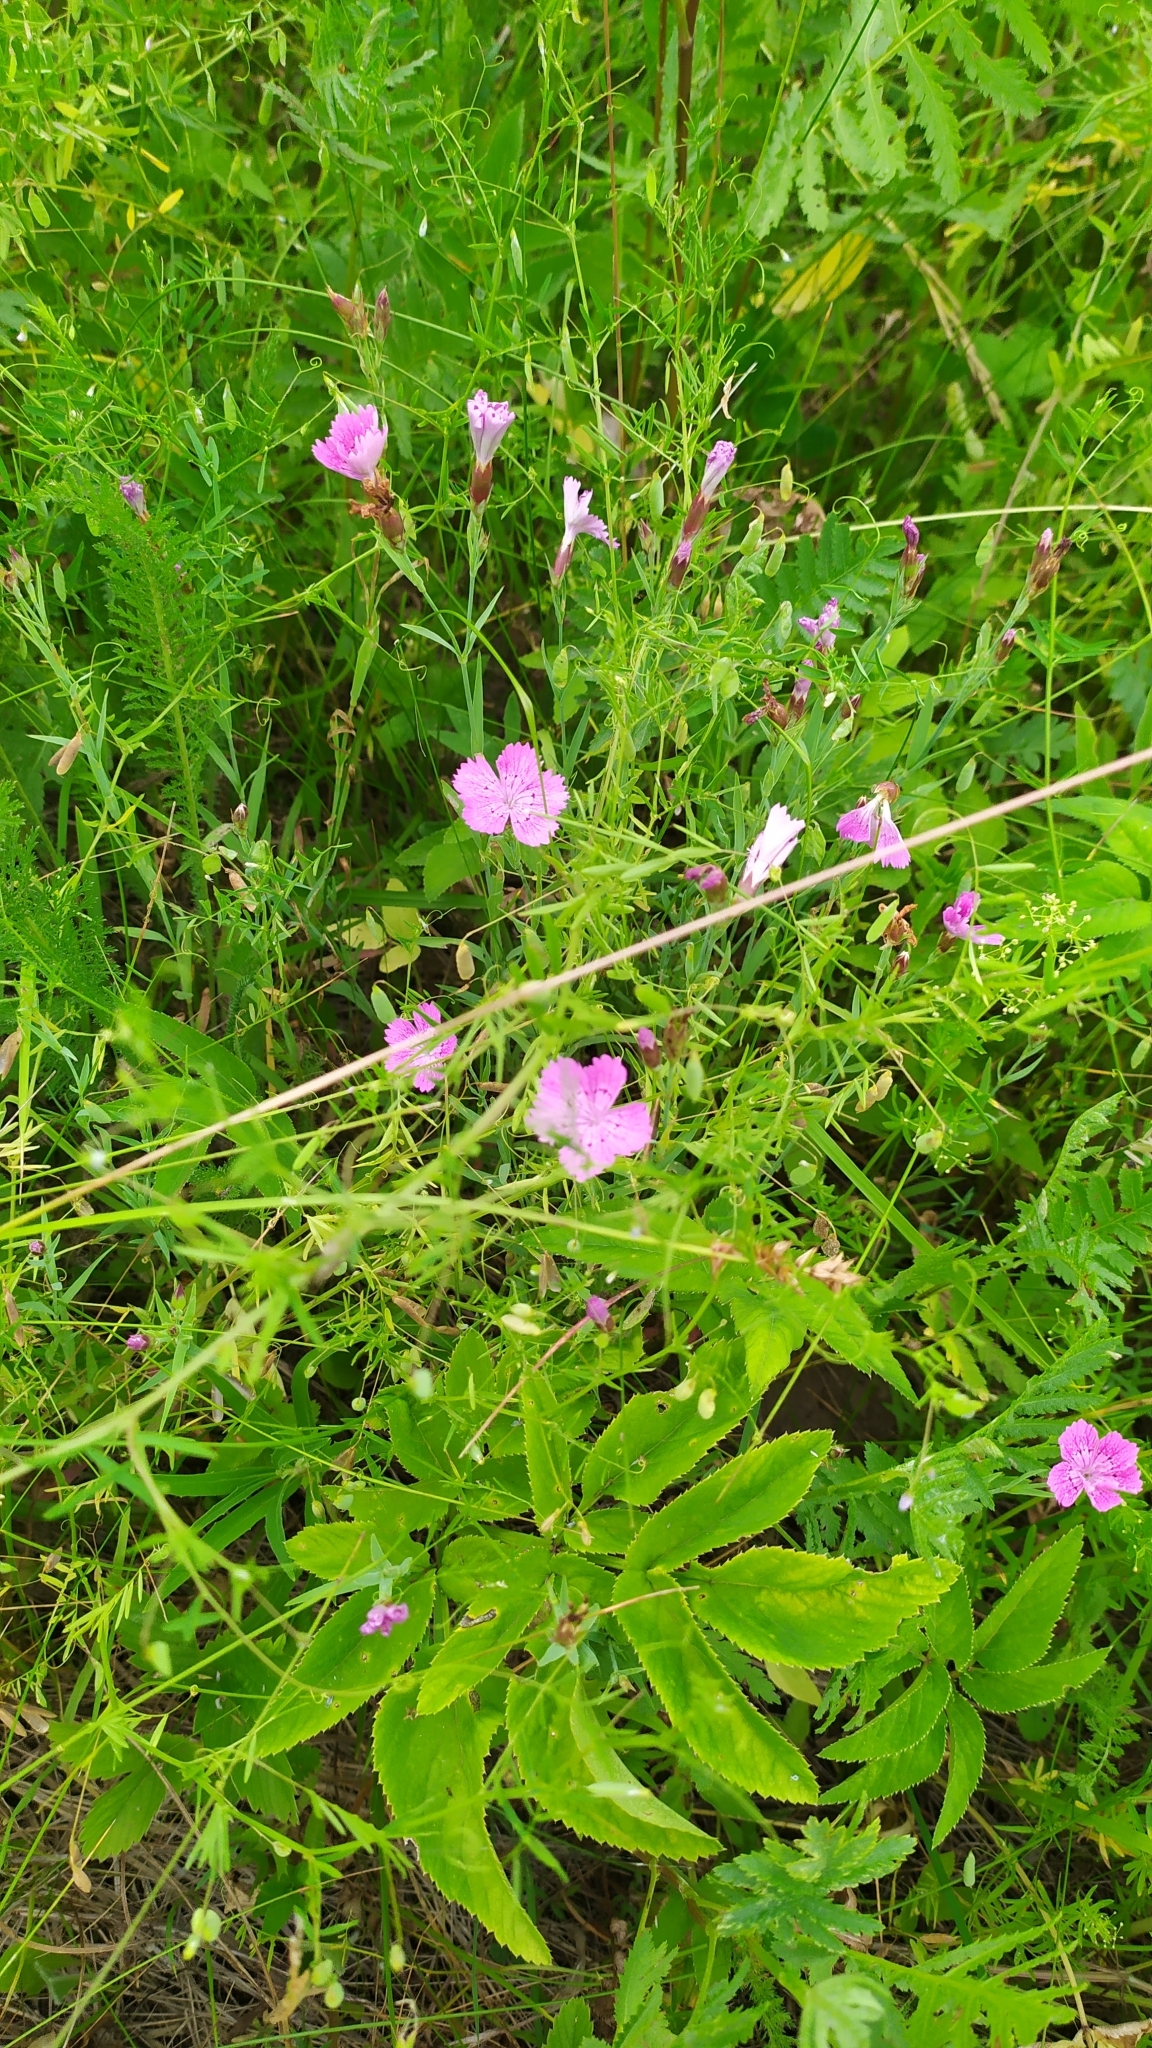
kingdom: Plantae
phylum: Tracheophyta
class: Magnoliopsida
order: Caryophyllales
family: Caryophyllaceae
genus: Dianthus
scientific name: Dianthus chinensis
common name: Rainbow pink
